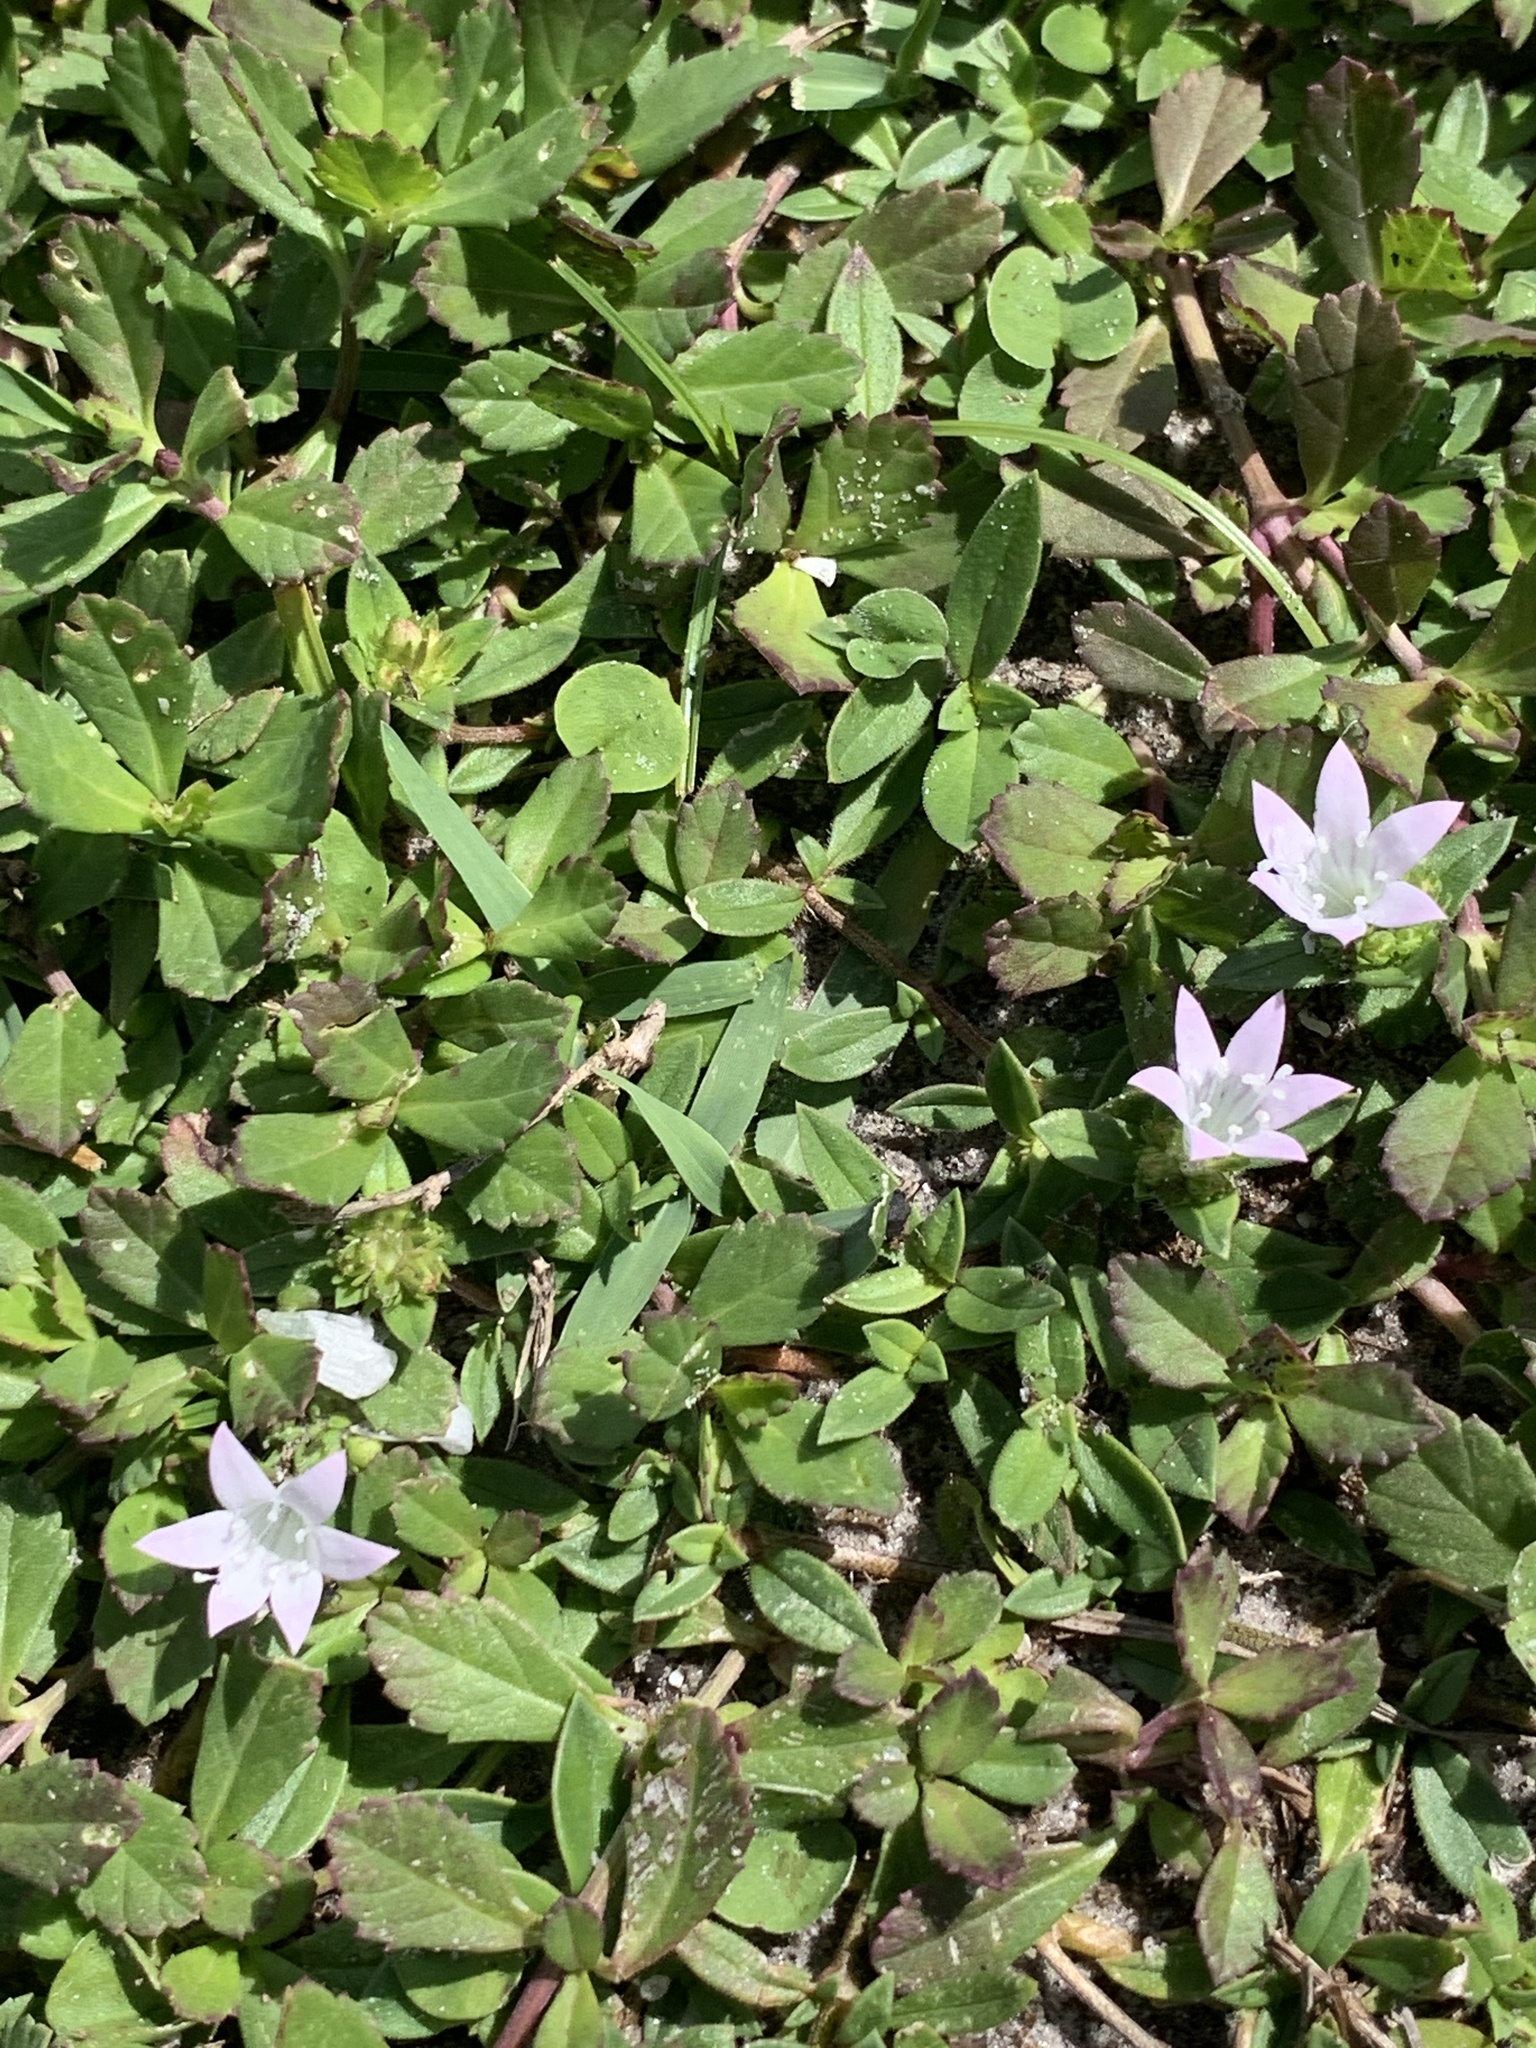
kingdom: Plantae
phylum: Tracheophyta
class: Magnoliopsida
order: Gentianales
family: Rubiaceae
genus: Richardia
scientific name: Richardia grandiflora
